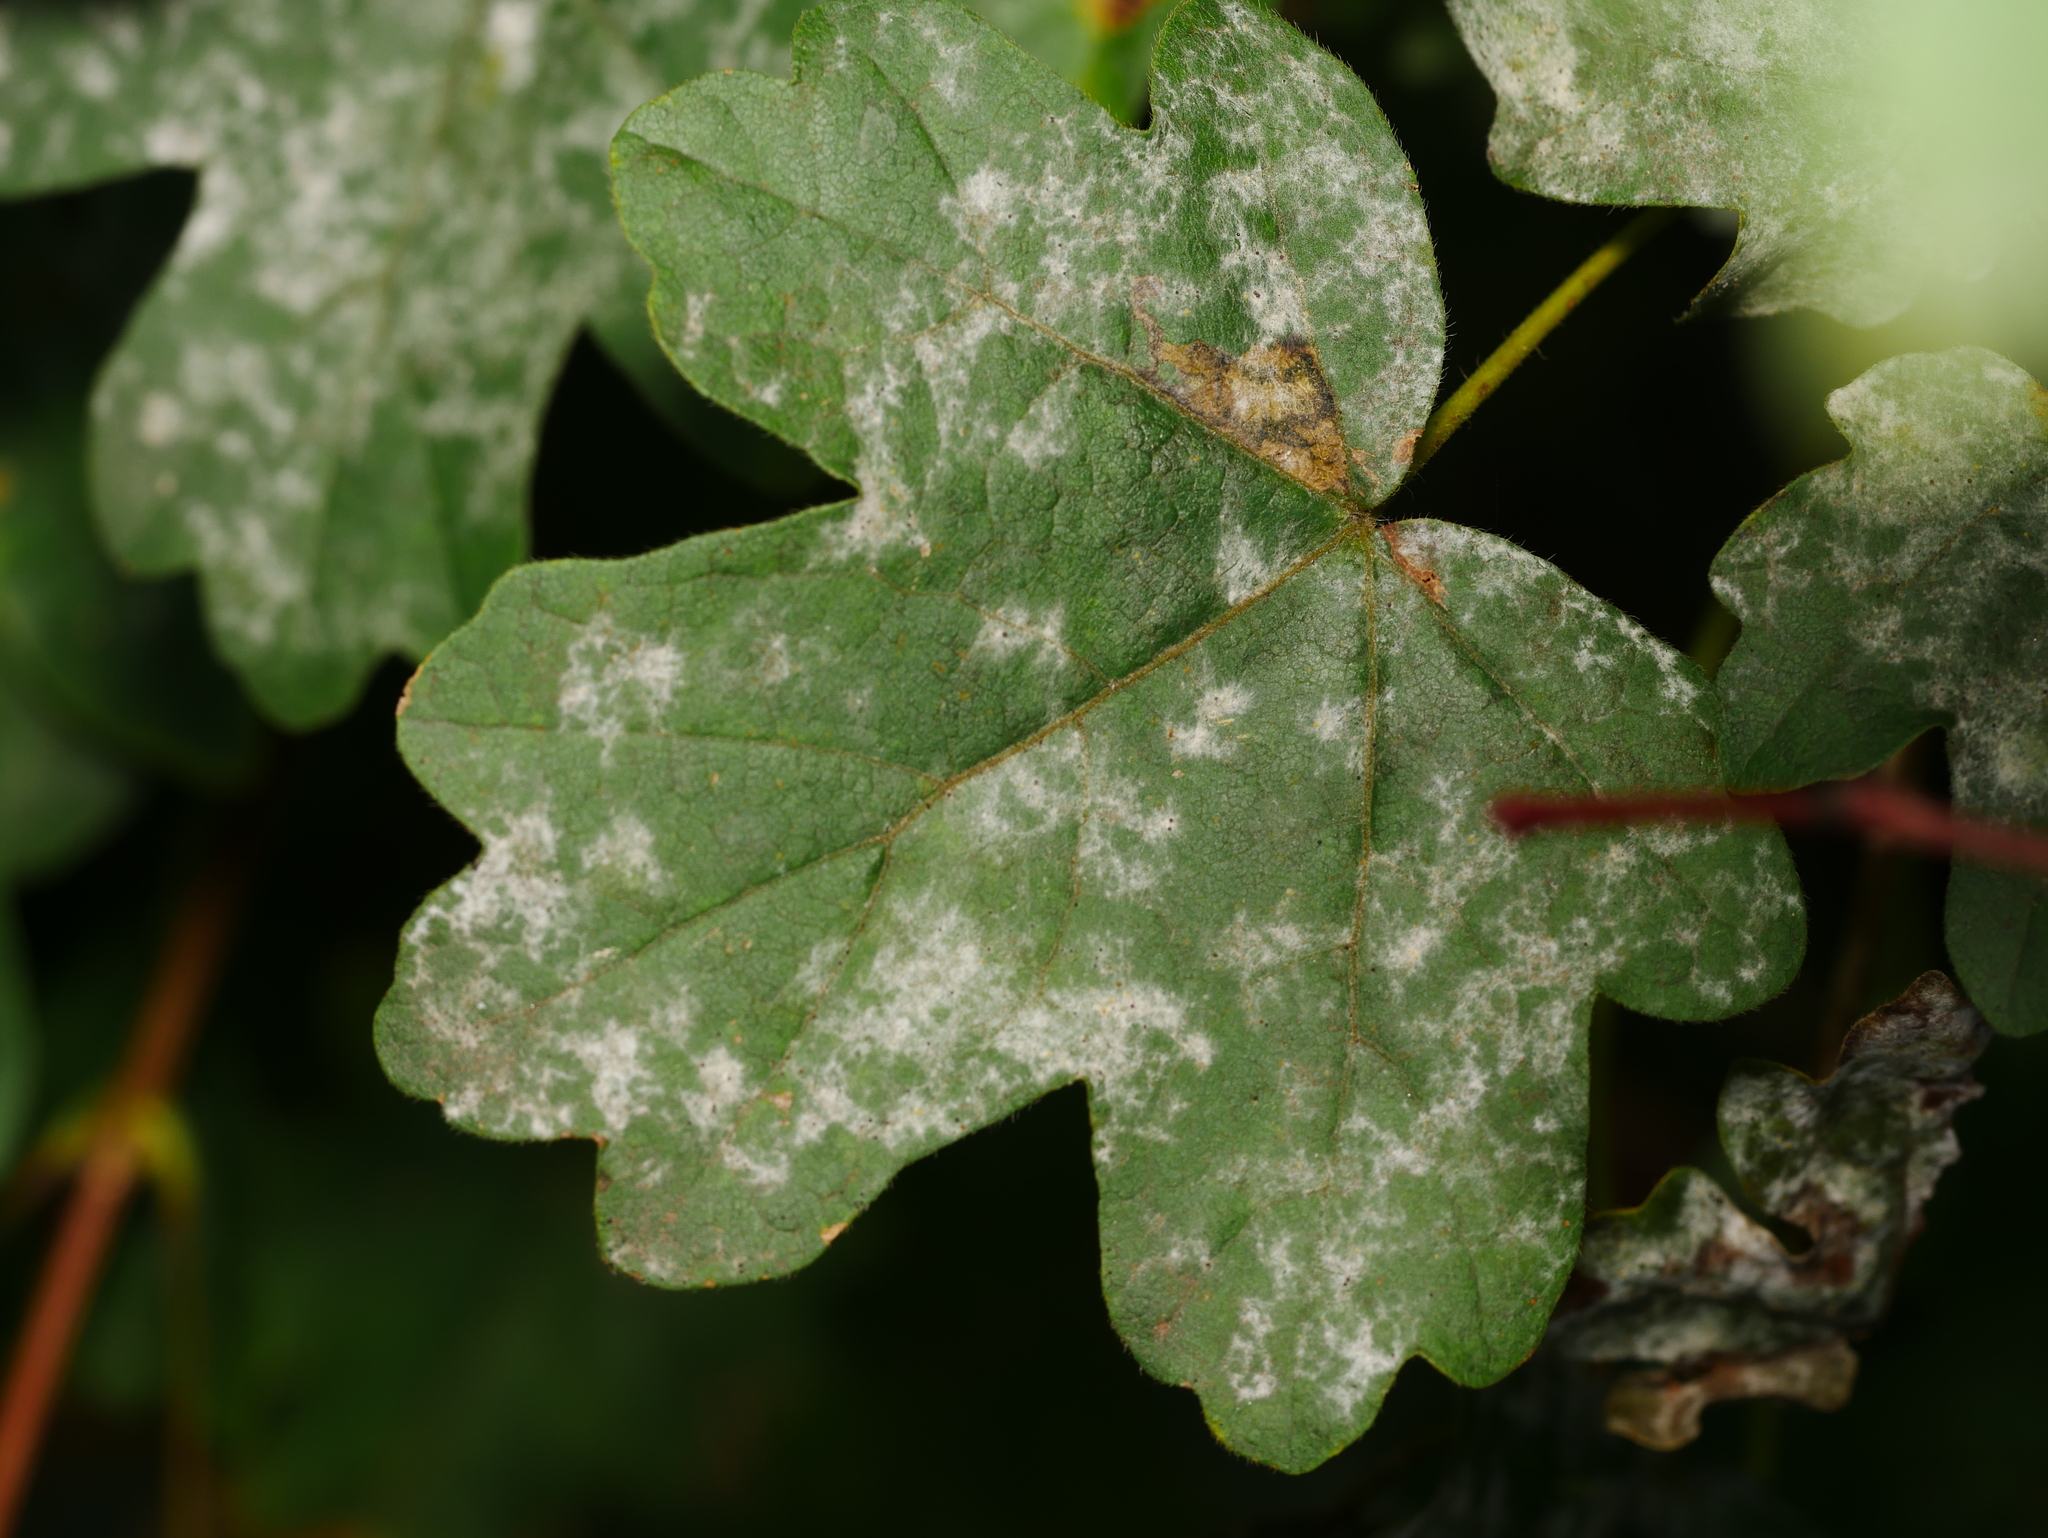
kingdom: Fungi
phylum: Ascomycota
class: Leotiomycetes
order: Helotiales
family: Erysiphaceae
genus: Sawadaea
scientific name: Sawadaea bicornis
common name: Maple mildew
